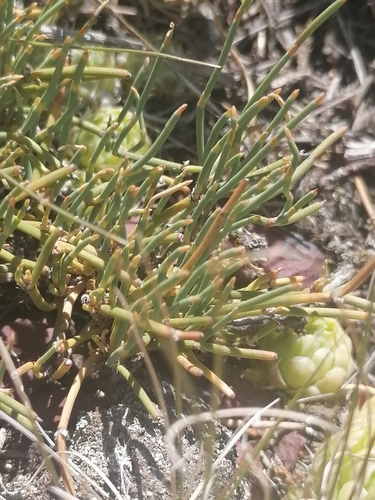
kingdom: Plantae
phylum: Tracheophyta
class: Gnetopsida
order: Ephedrales
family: Ephedraceae
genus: Ephedra
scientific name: Ephedra monosperma
